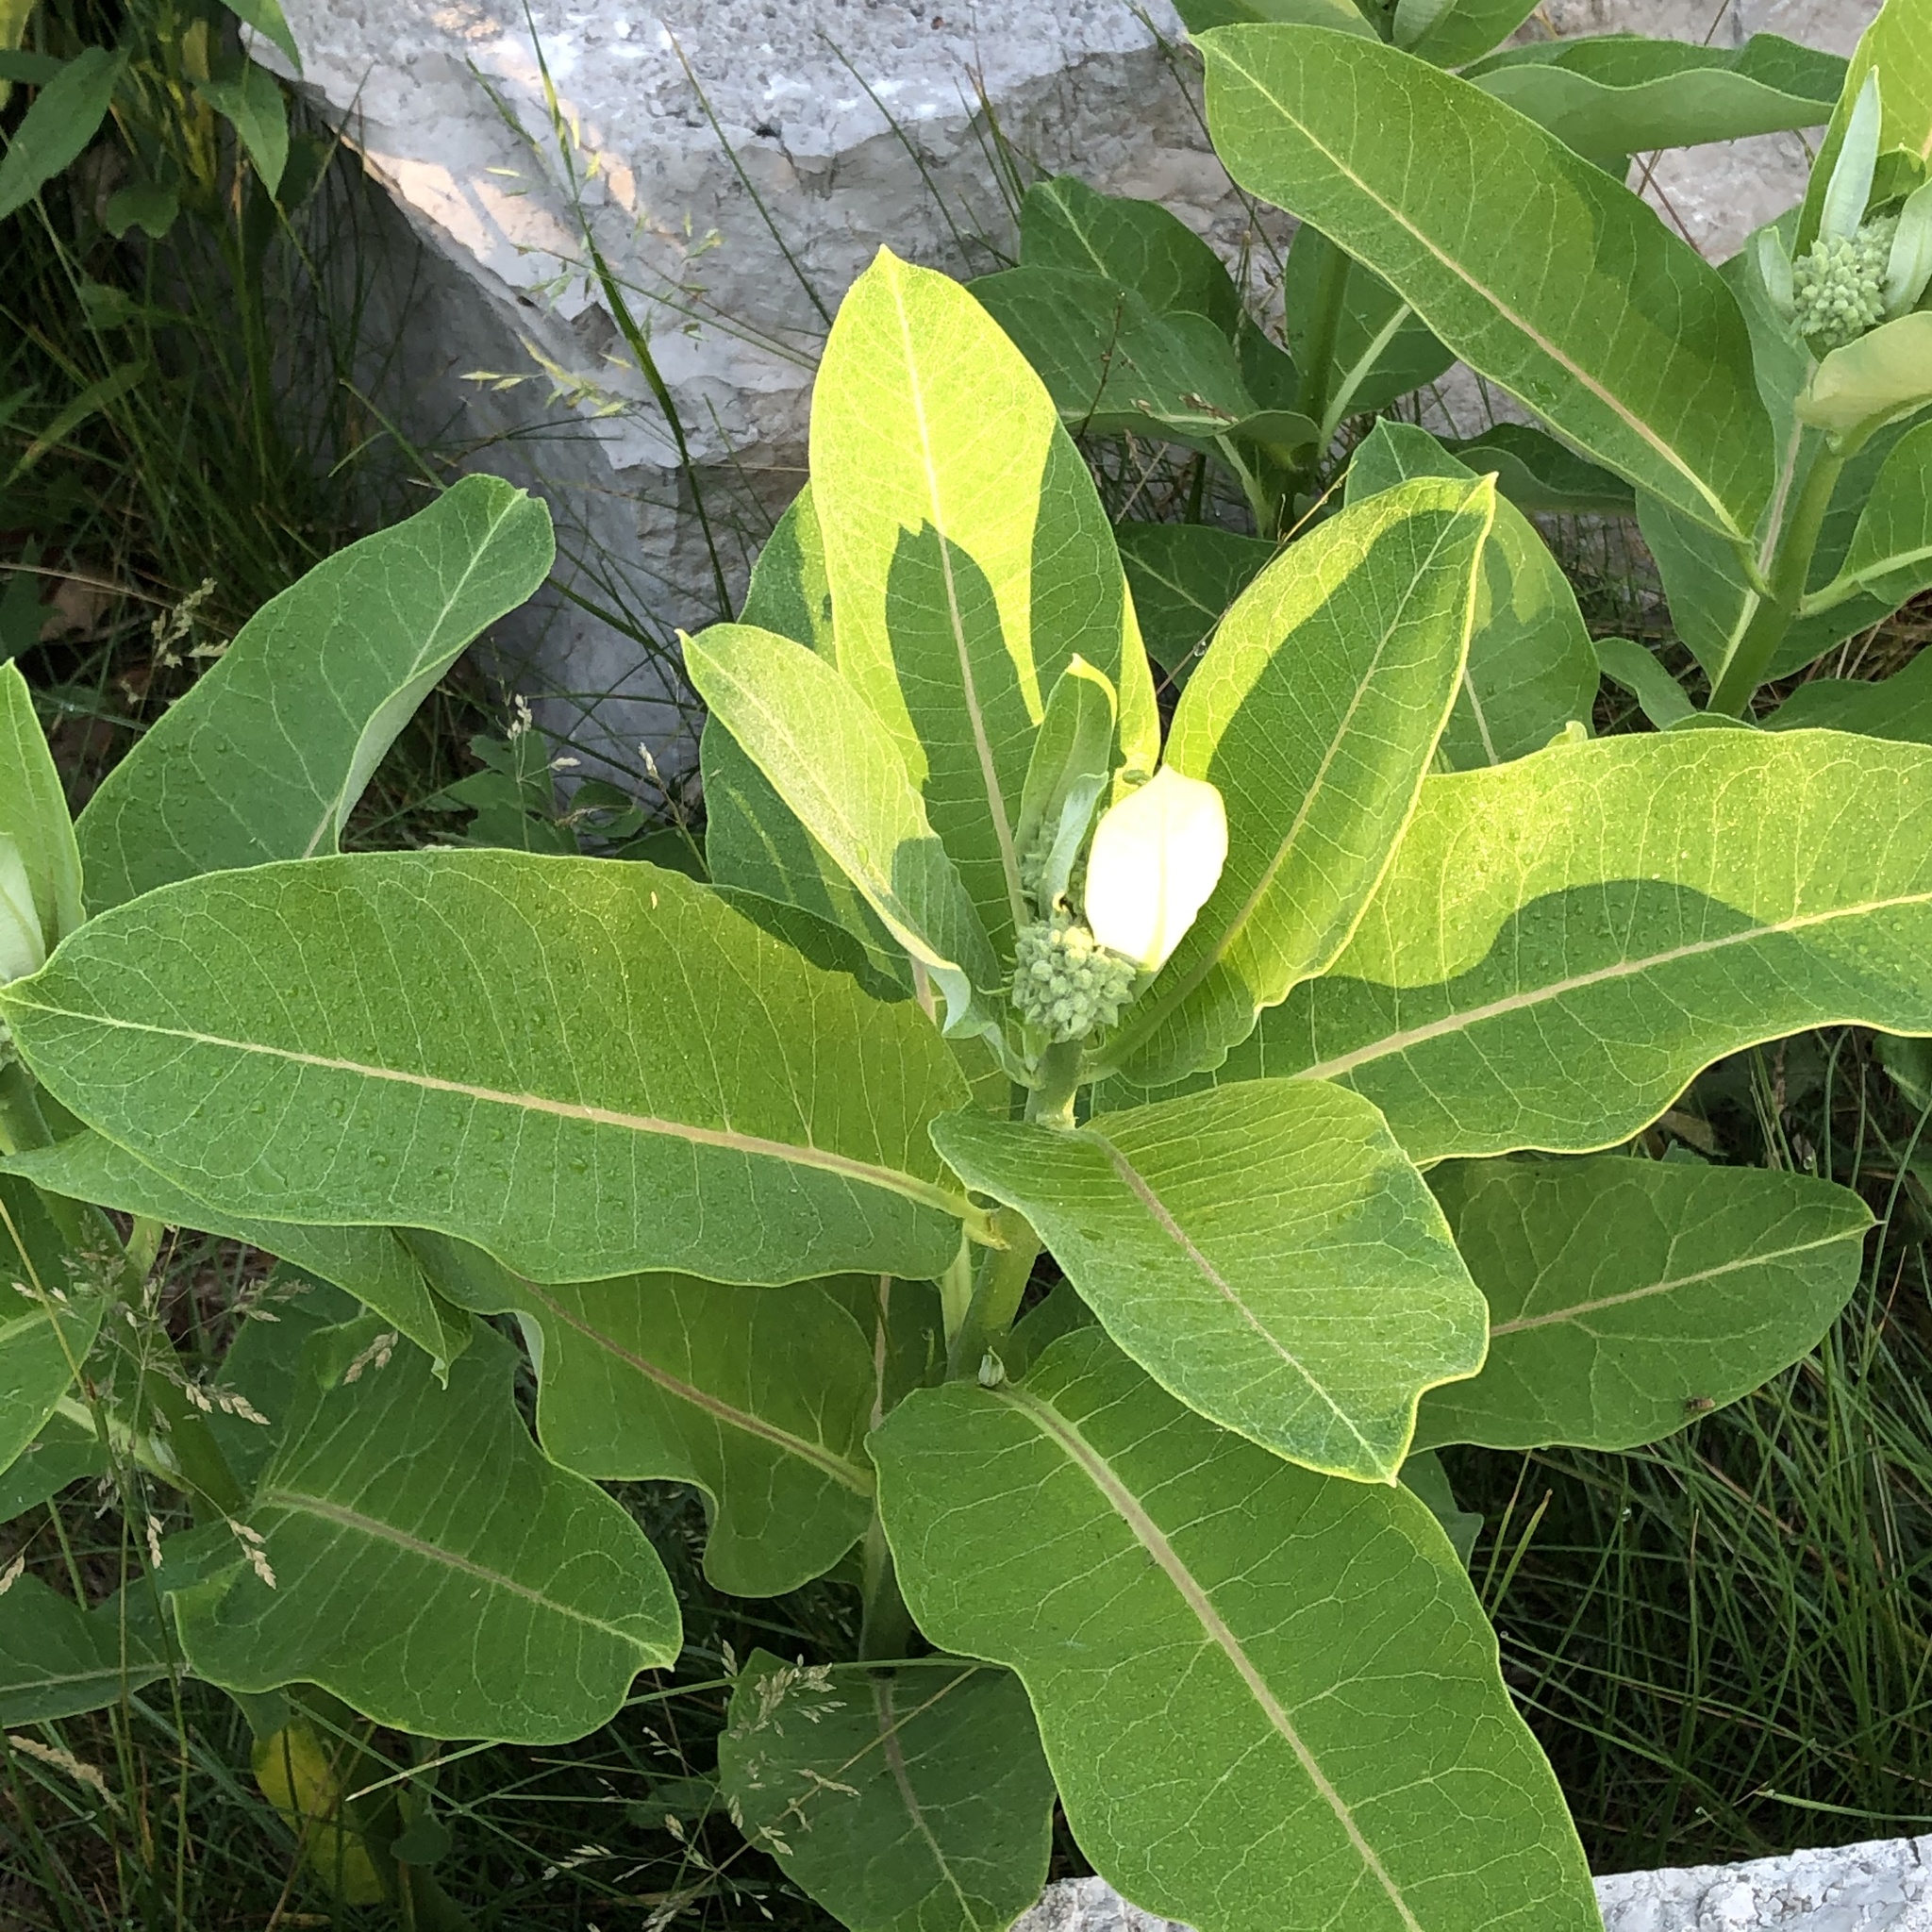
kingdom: Plantae
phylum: Tracheophyta
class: Magnoliopsida
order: Gentianales
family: Apocynaceae
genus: Asclepias
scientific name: Asclepias syriaca
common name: Common milkweed
